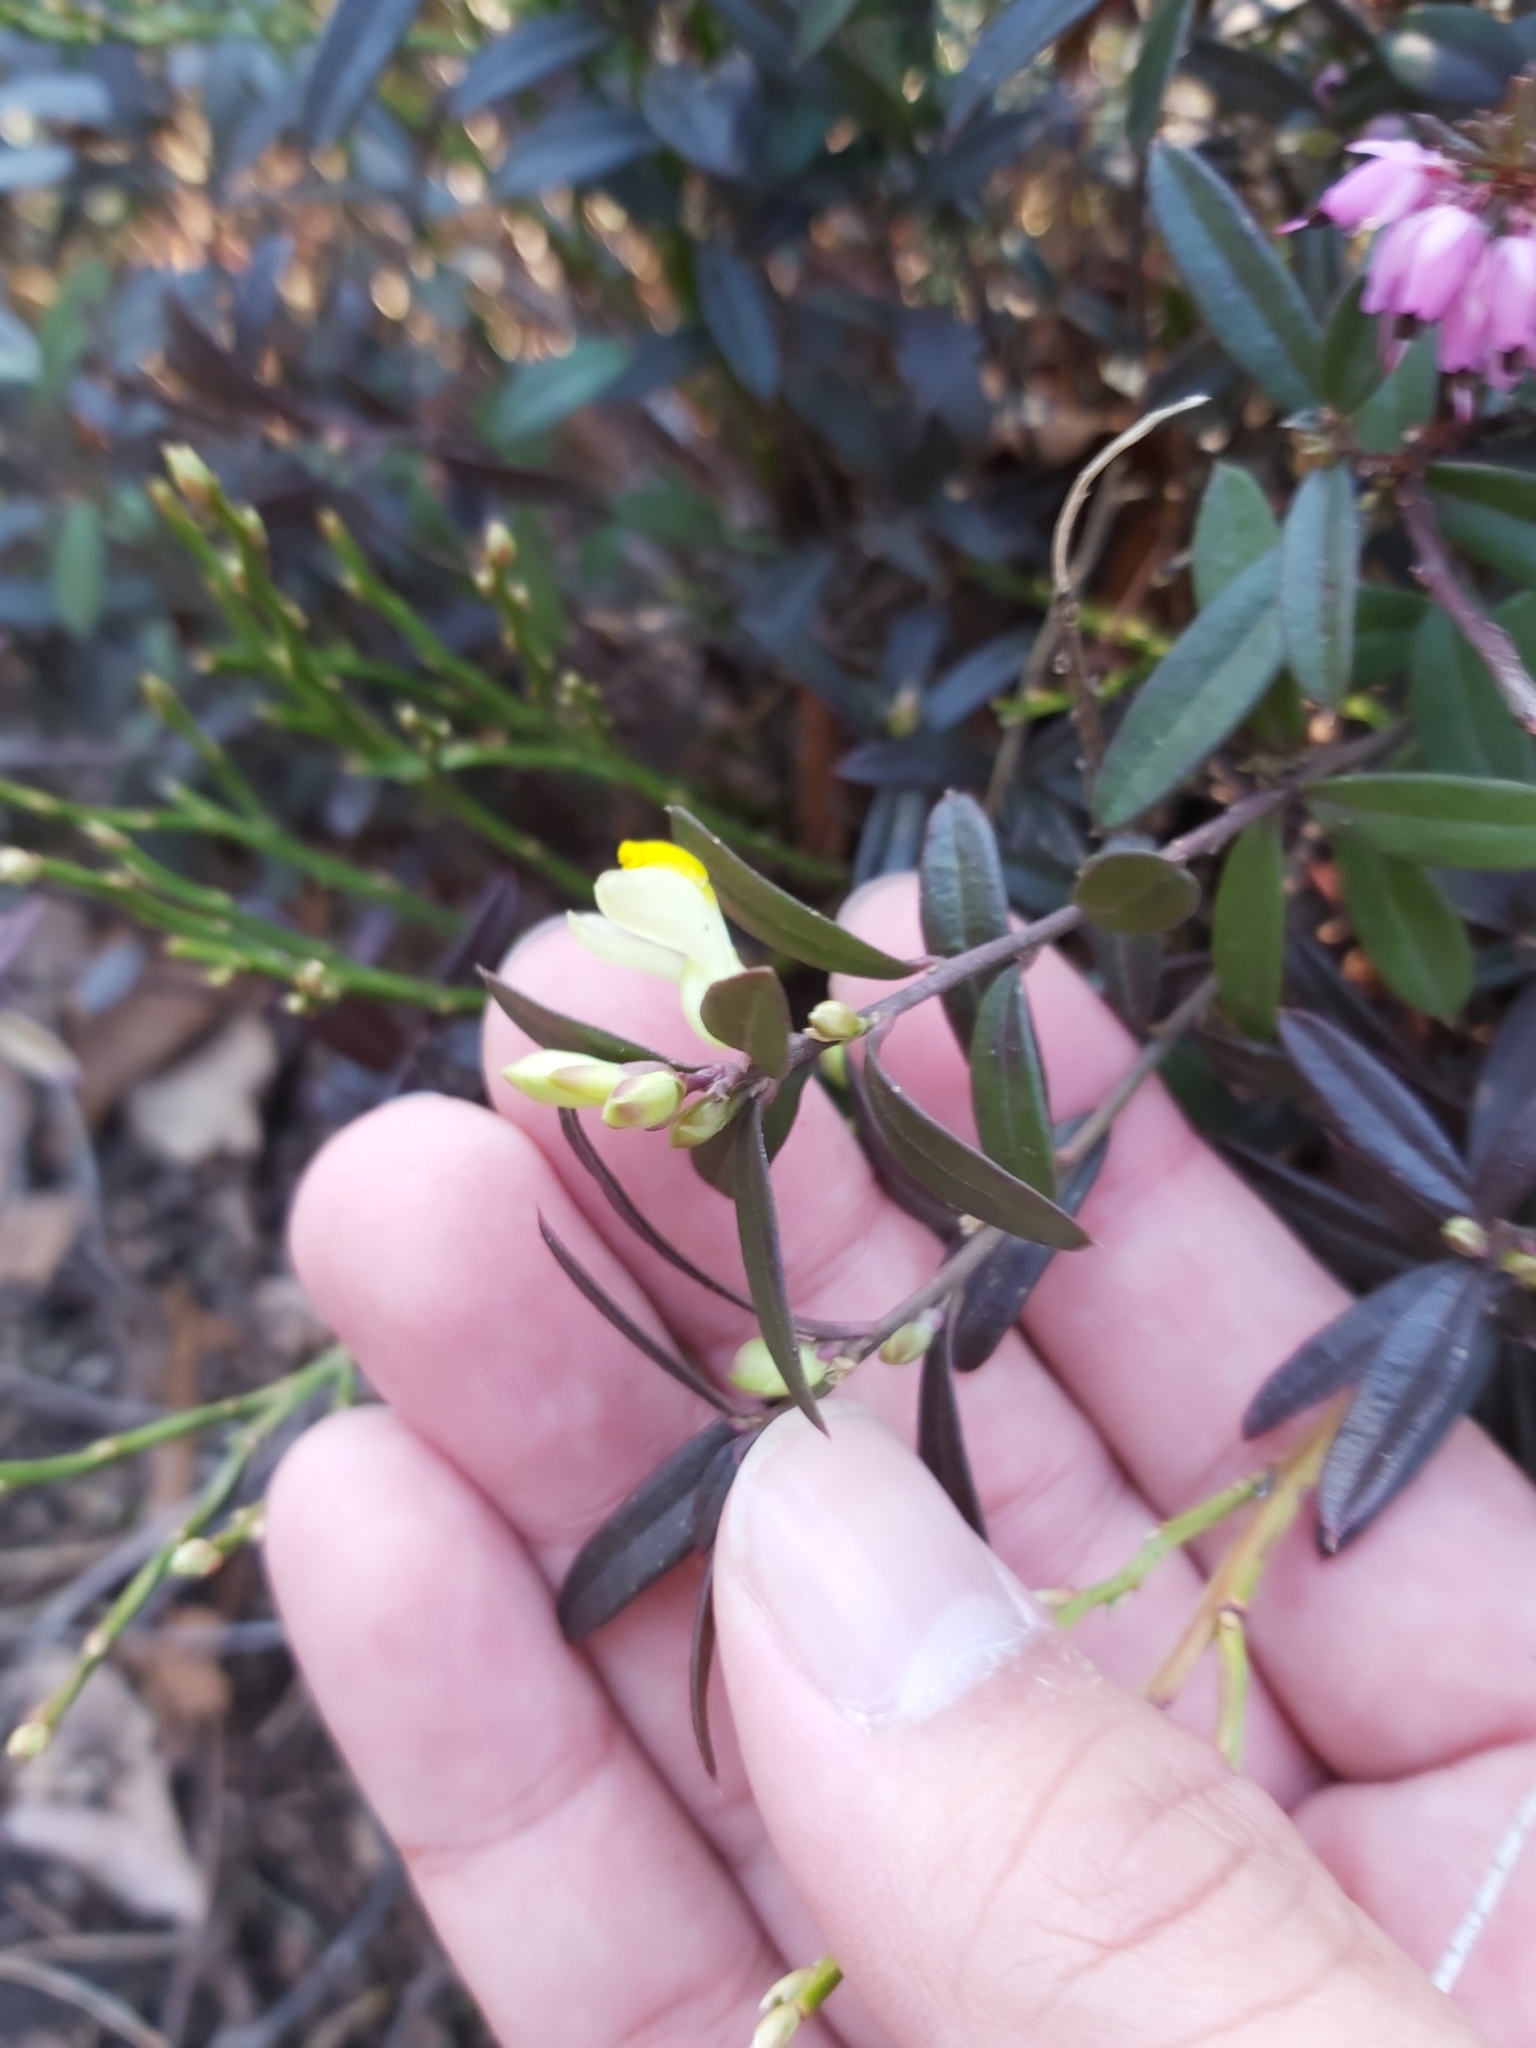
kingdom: Plantae
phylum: Tracheophyta
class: Magnoliopsida
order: Fabales
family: Polygalaceae
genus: Polygaloides
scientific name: Polygaloides chamaebuxus
